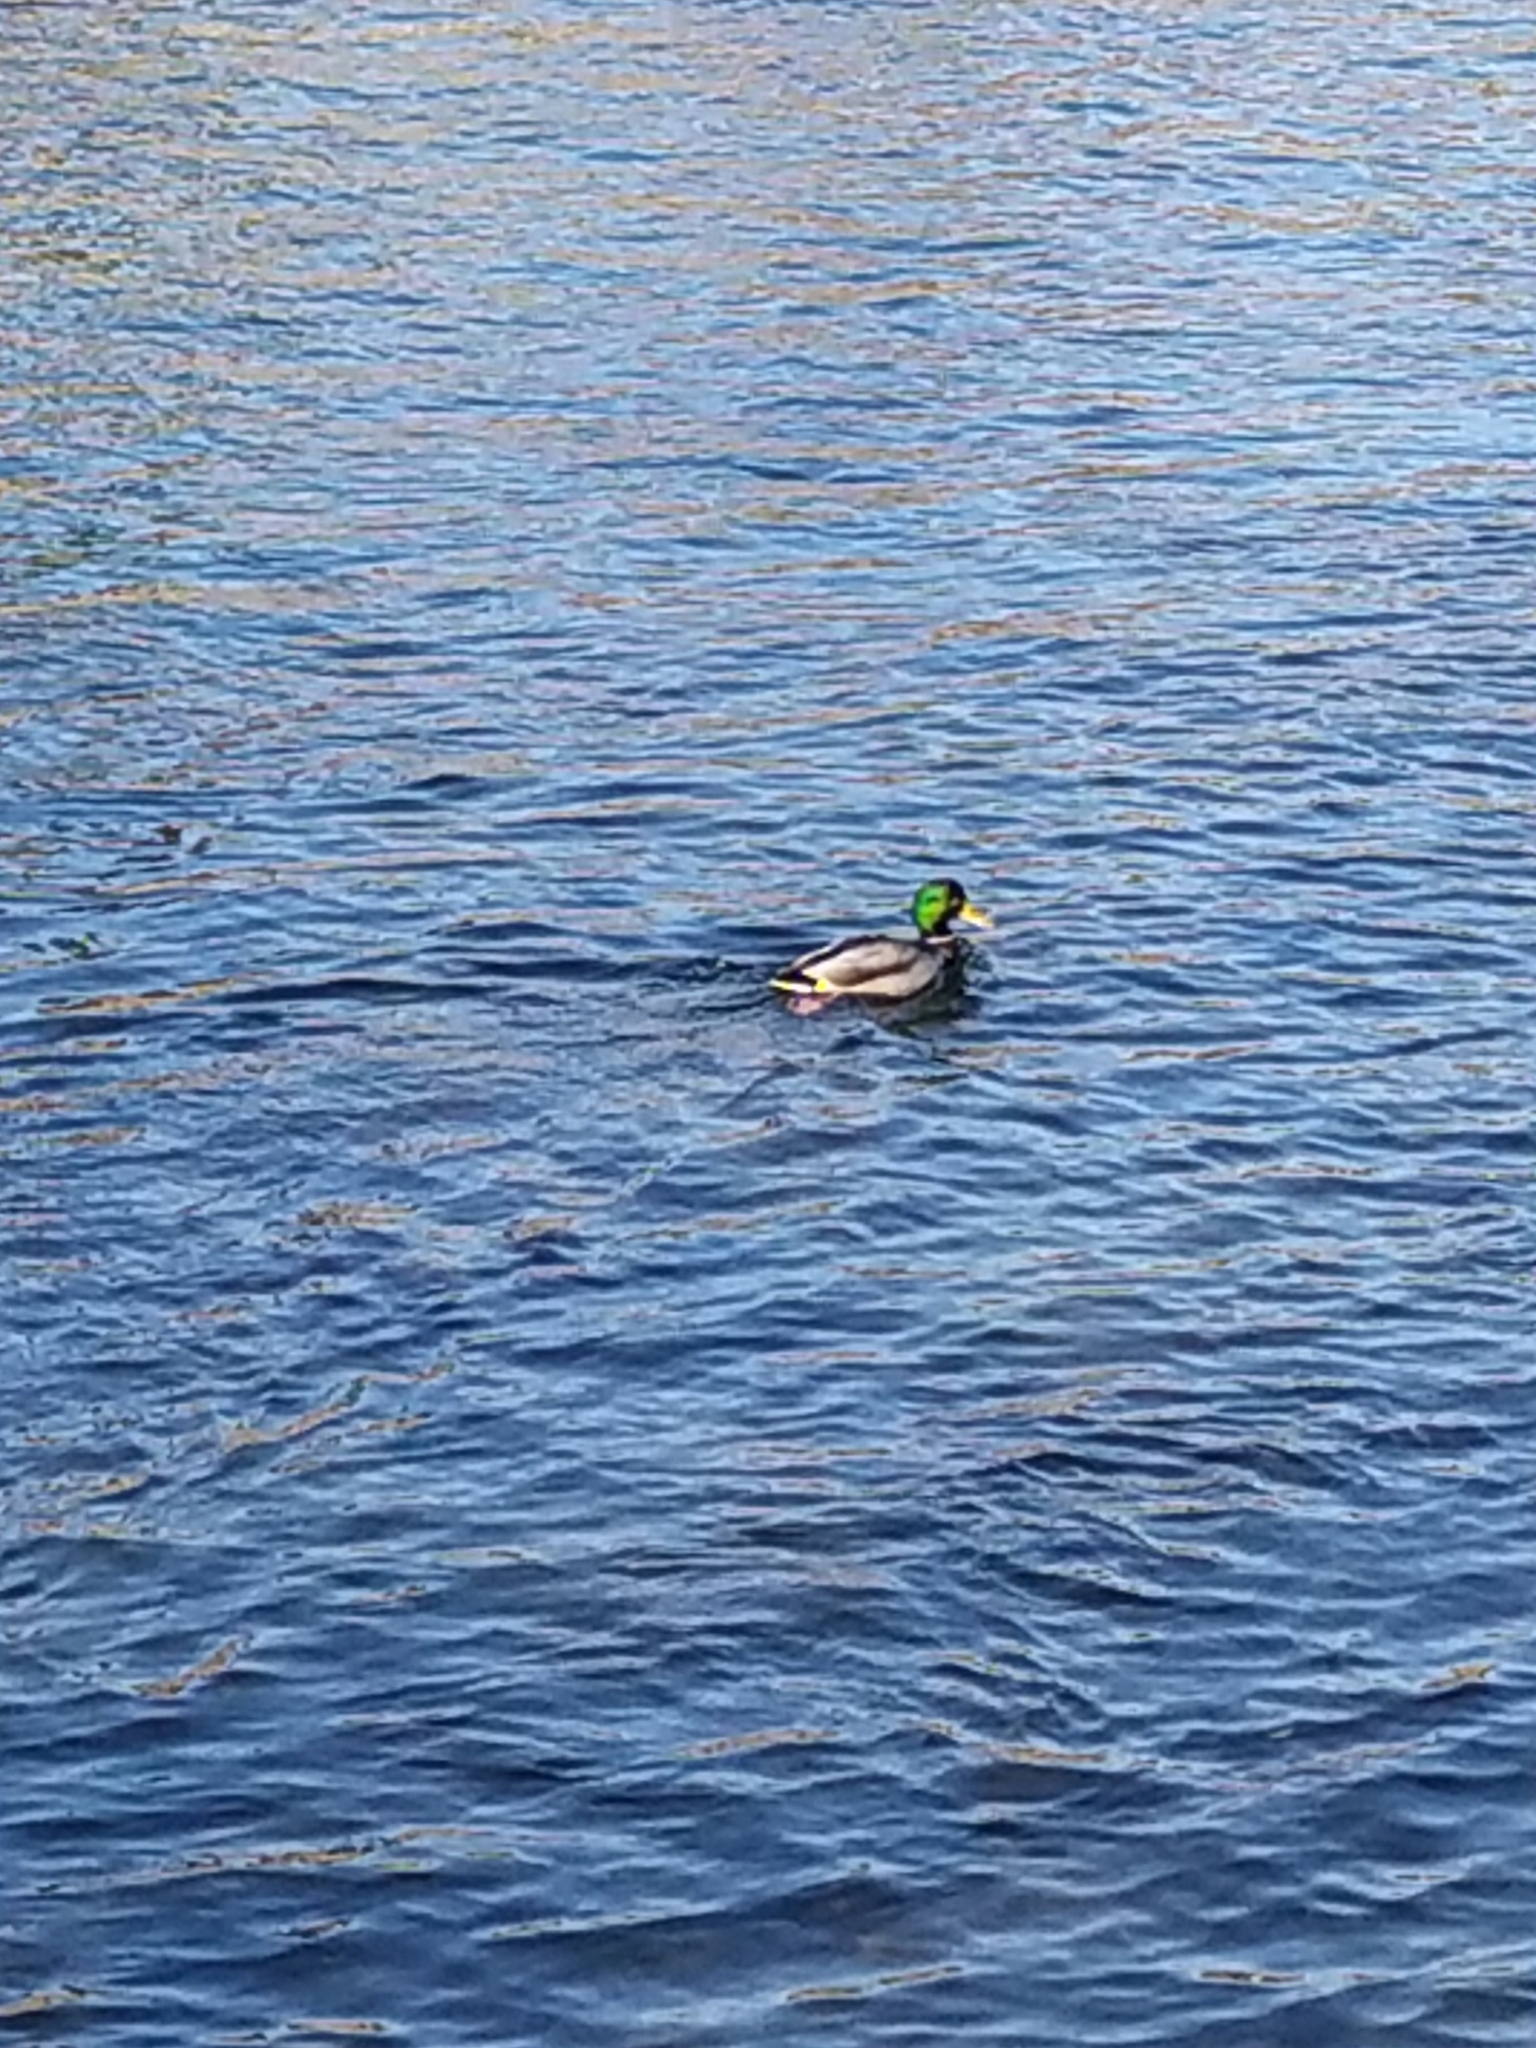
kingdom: Animalia
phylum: Chordata
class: Aves
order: Anseriformes
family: Anatidae
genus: Anas
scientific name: Anas platyrhynchos
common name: Mallard
